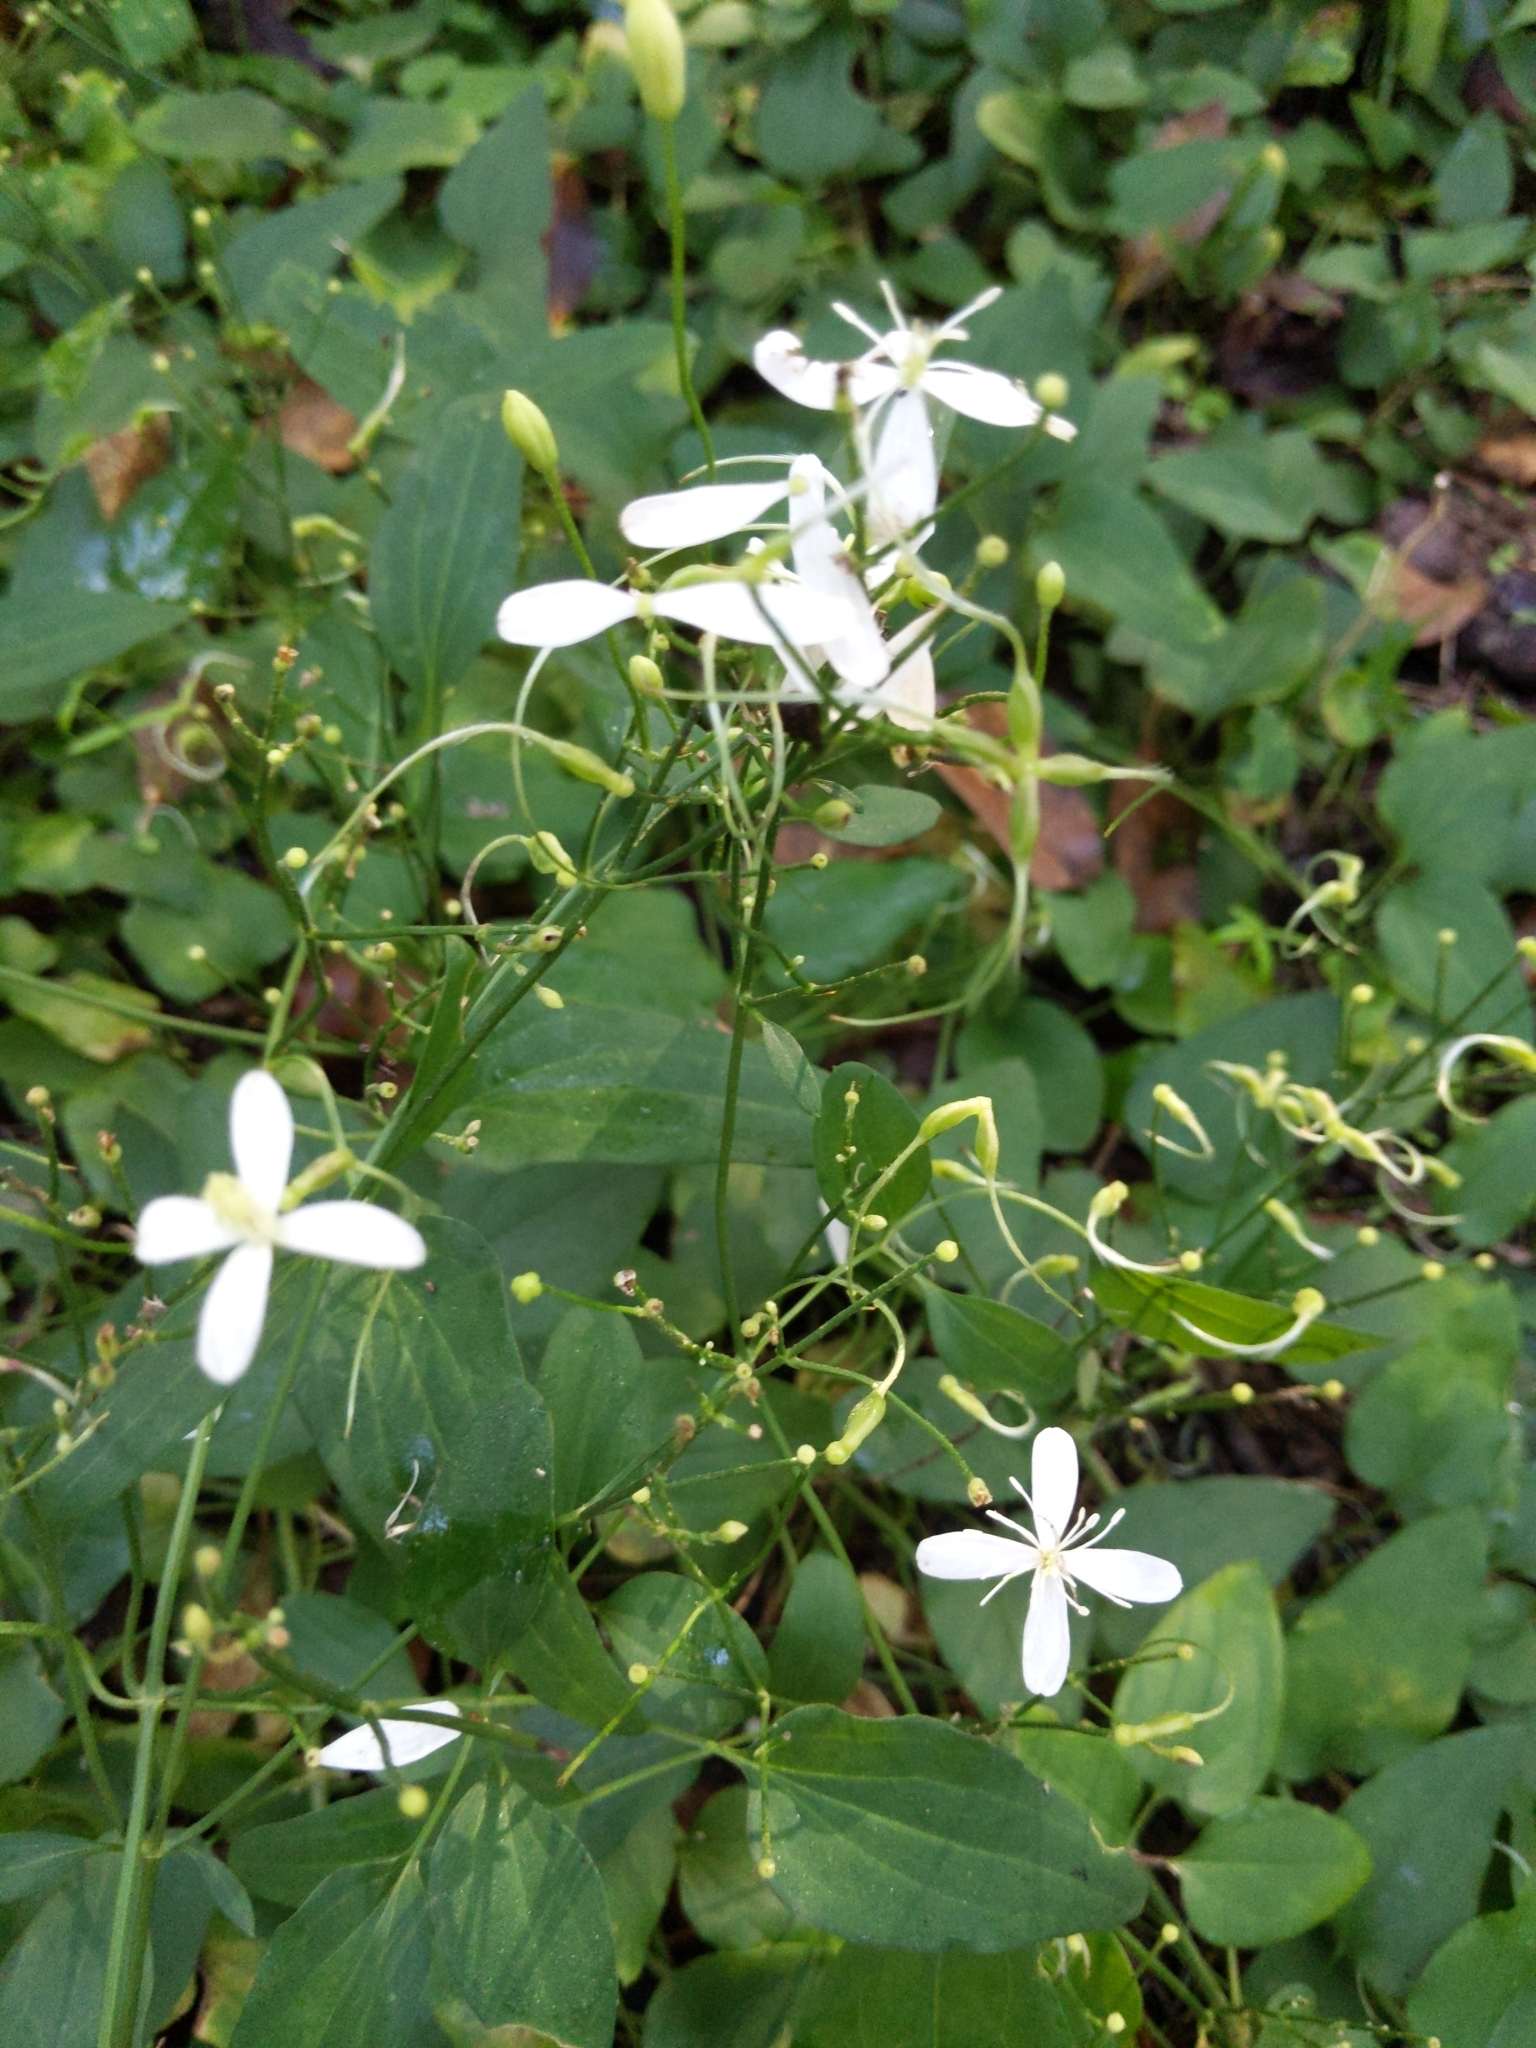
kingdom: Plantae
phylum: Tracheophyta
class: Magnoliopsida
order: Ranunculales
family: Ranunculaceae
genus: Clematis
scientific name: Clematis terniflora
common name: Sweet autumn clematis
